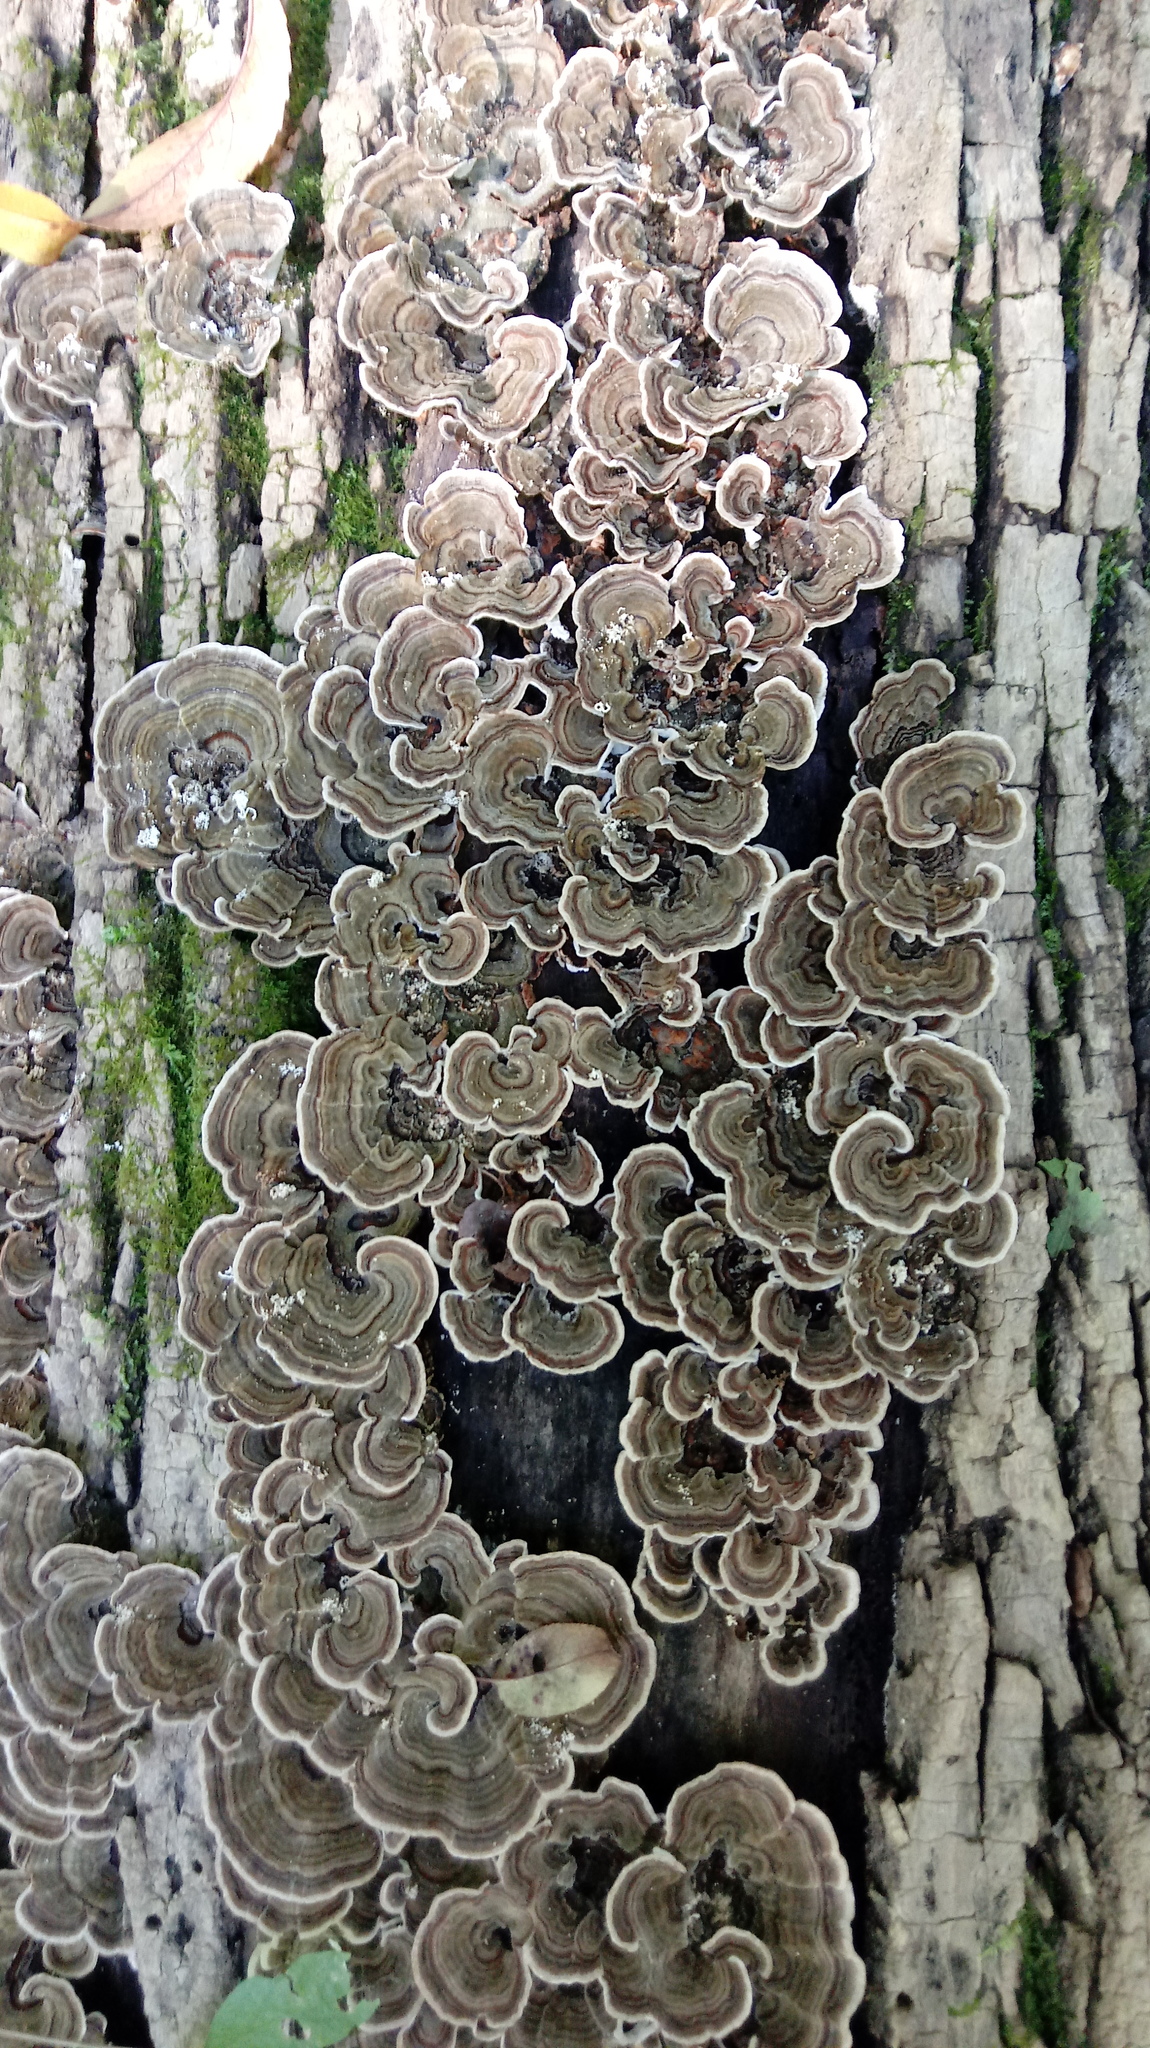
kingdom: Fungi
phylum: Basidiomycota
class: Agaricomycetes
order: Polyporales
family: Polyporaceae
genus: Trametes
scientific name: Trametes versicolor
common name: Turkeytail
